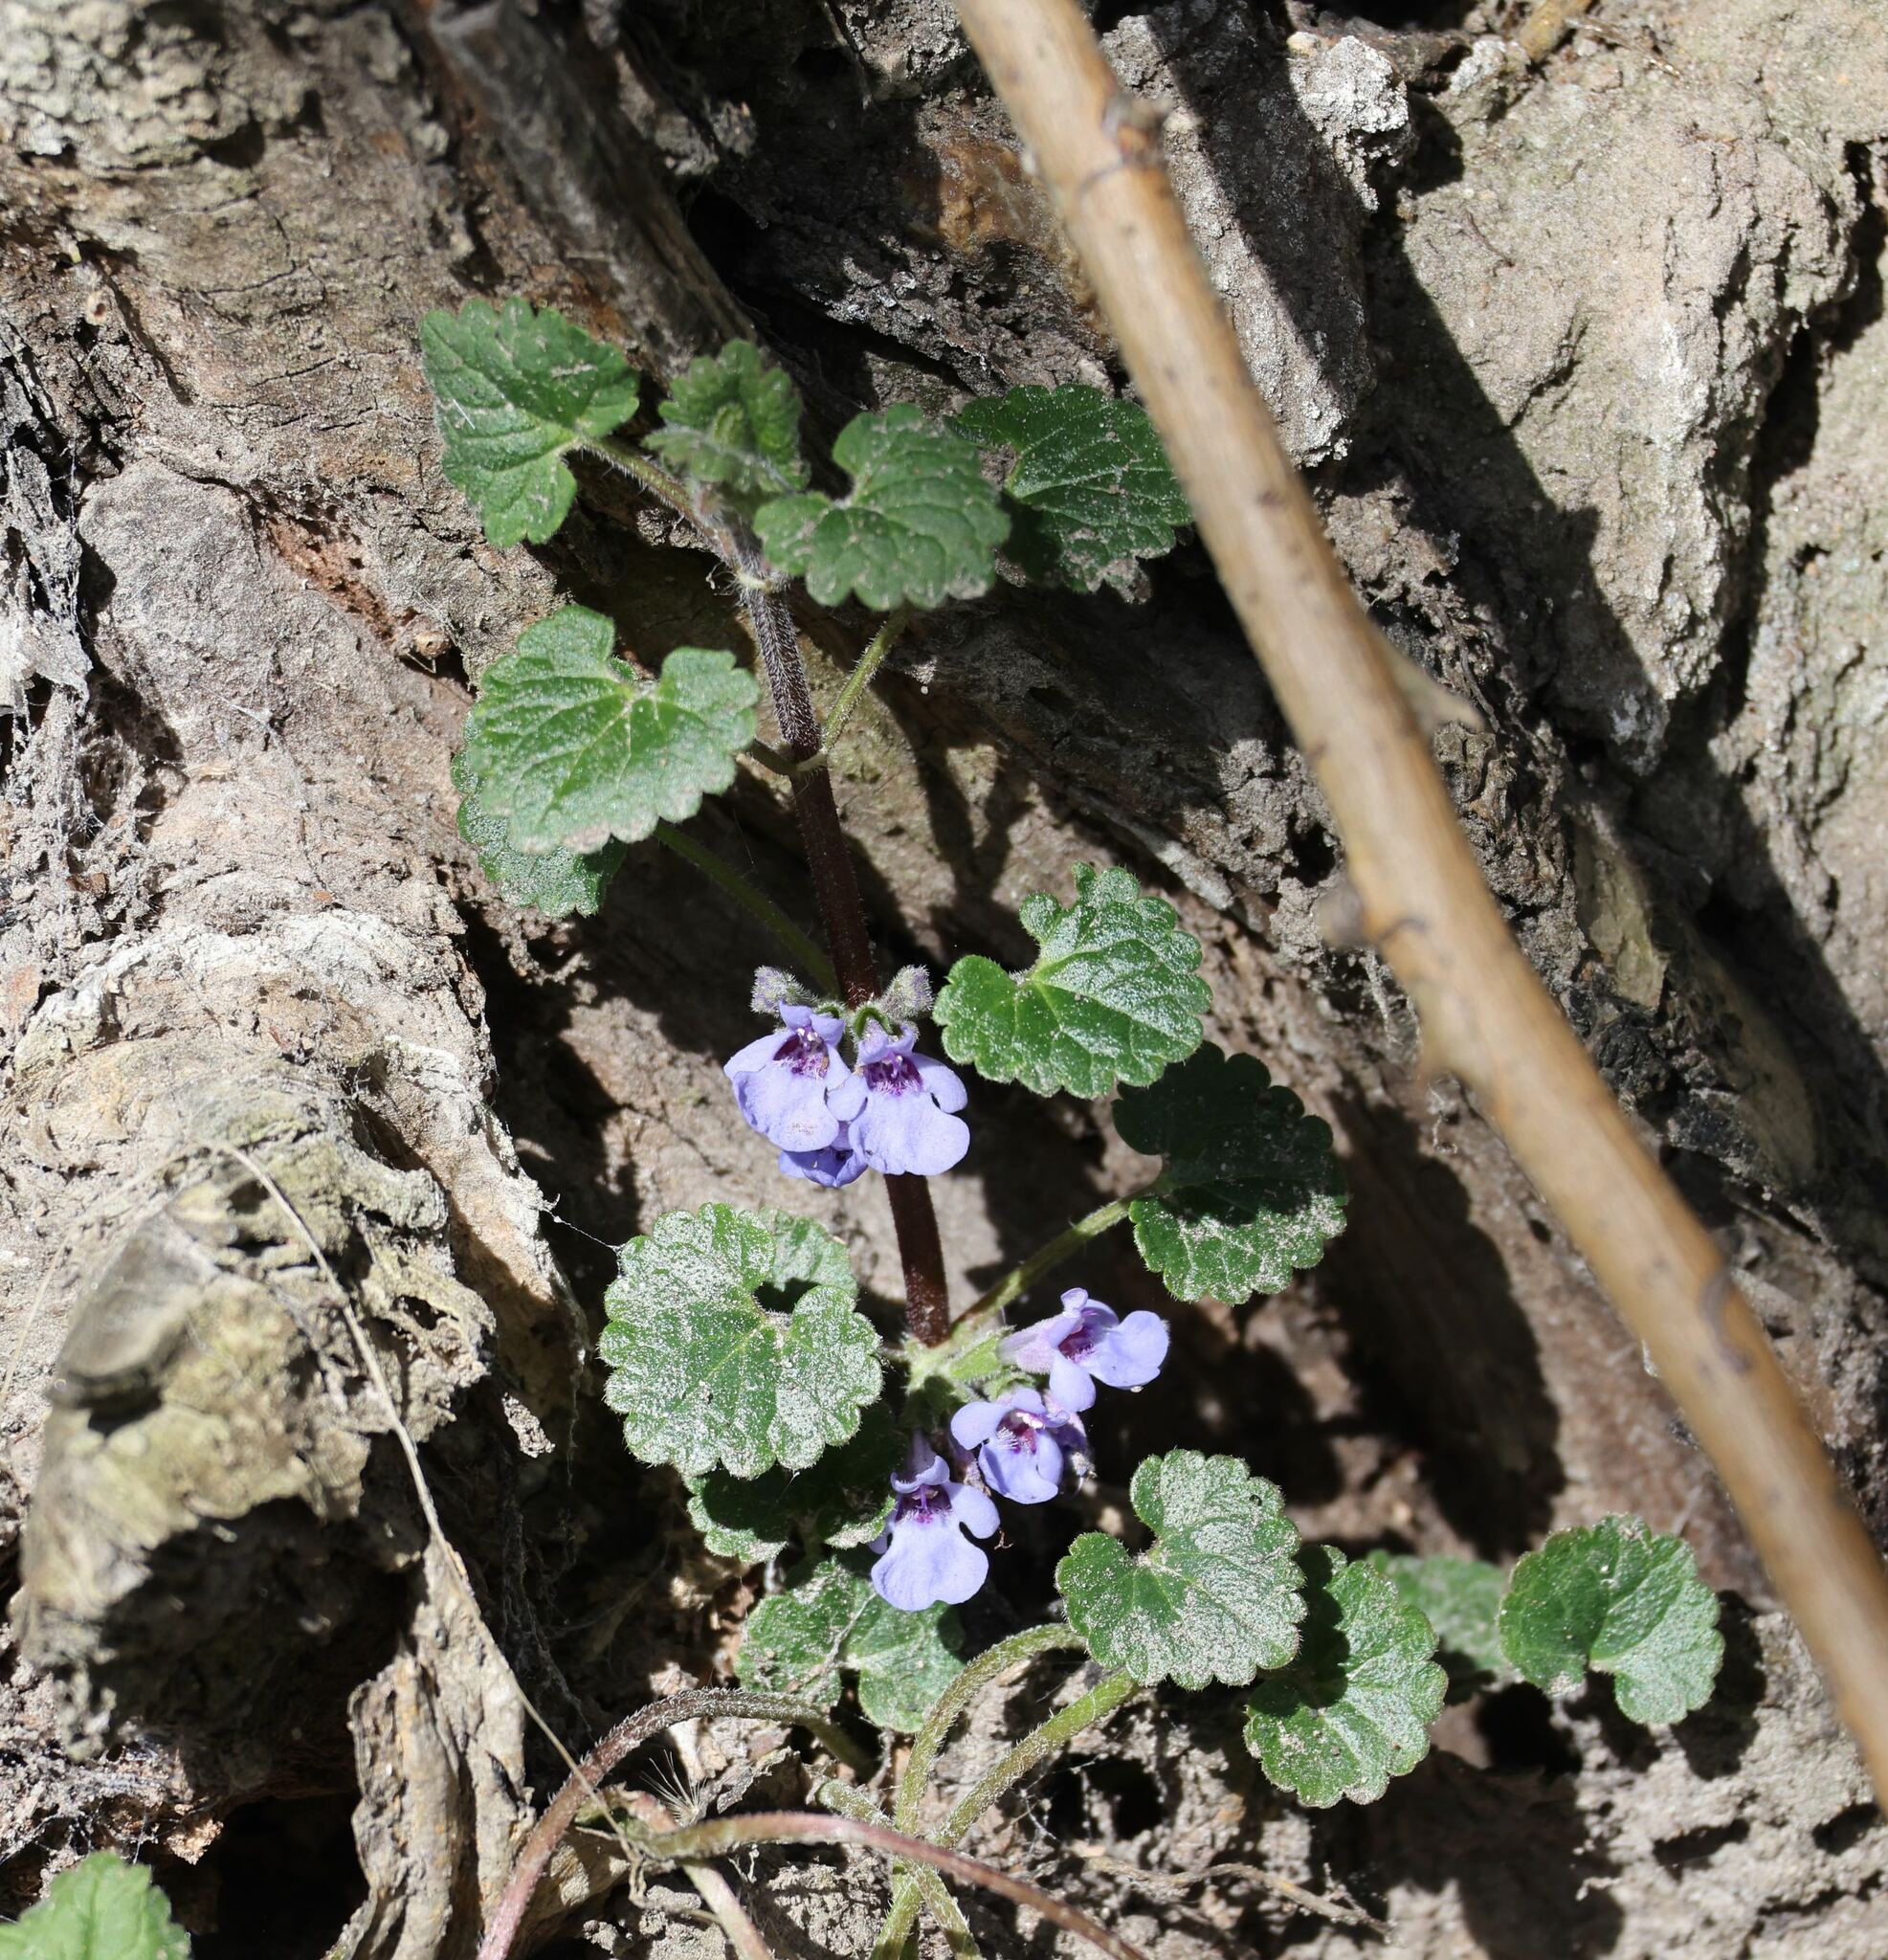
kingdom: Plantae
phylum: Tracheophyta
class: Magnoliopsida
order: Lamiales
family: Lamiaceae
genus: Glechoma
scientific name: Glechoma hederacea
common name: Ground ivy
